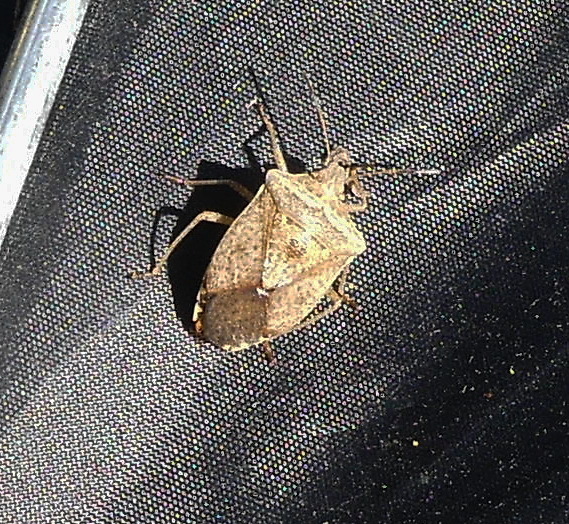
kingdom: Animalia
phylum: Arthropoda
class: Insecta
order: Hemiptera
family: Pentatomidae
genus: Euschistus
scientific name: Euschistus servus
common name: Brown stink bug
